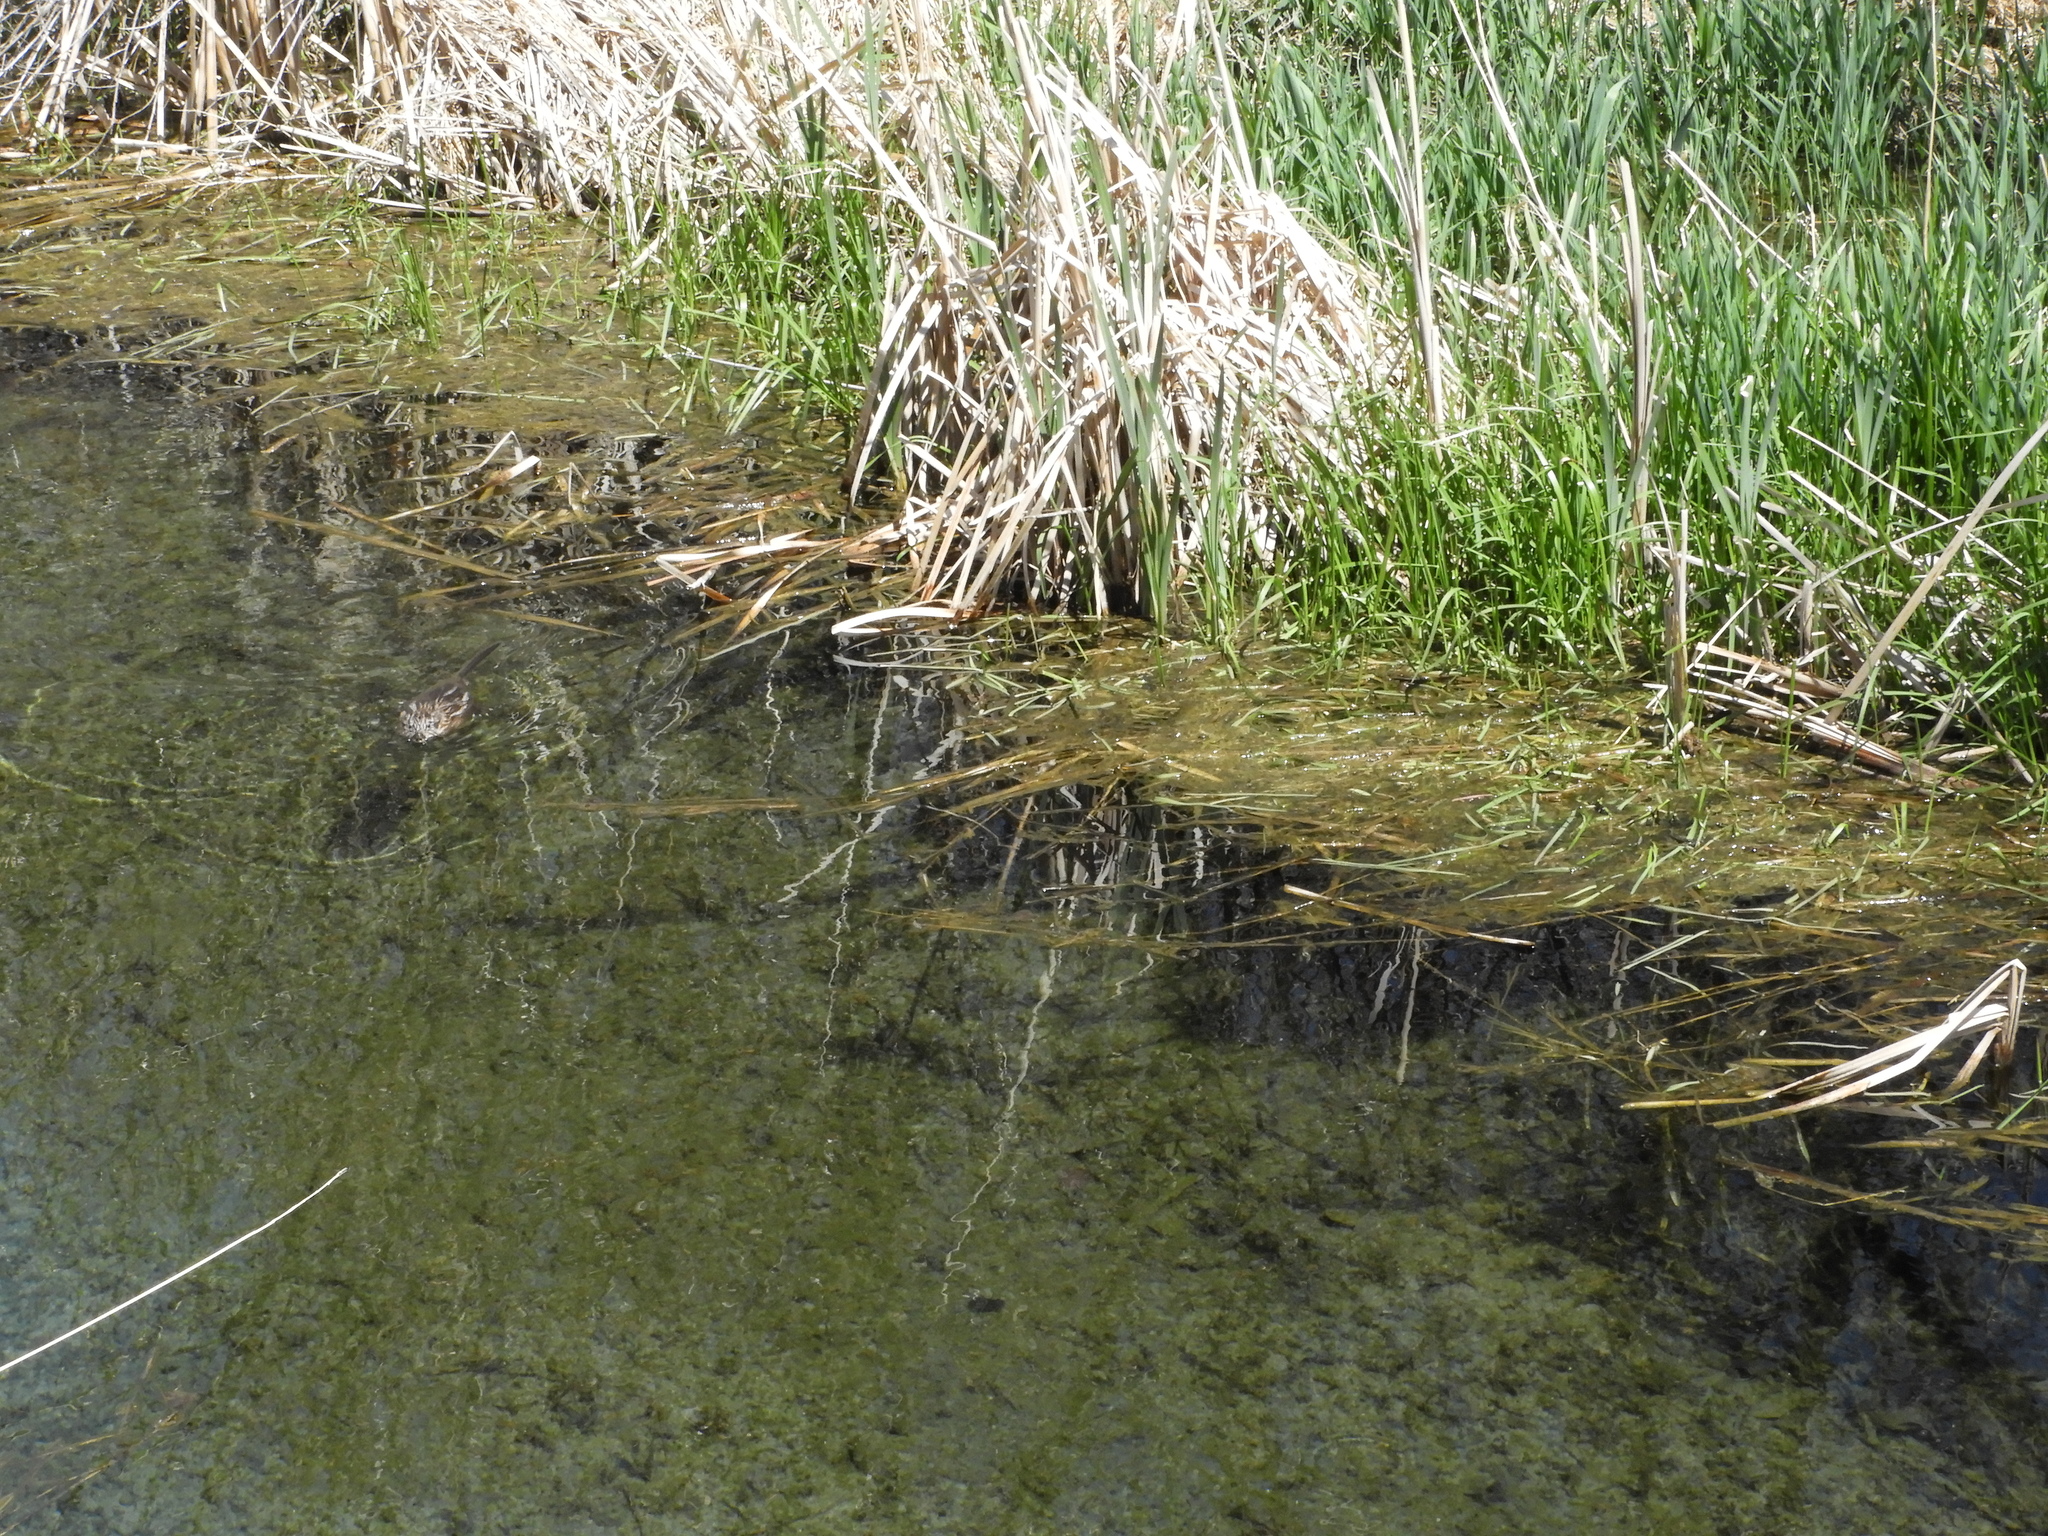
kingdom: Animalia
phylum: Chordata
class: Mammalia
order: Rodentia
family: Cricetidae
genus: Ondatra
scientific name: Ondatra zibethicus
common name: Muskrat
